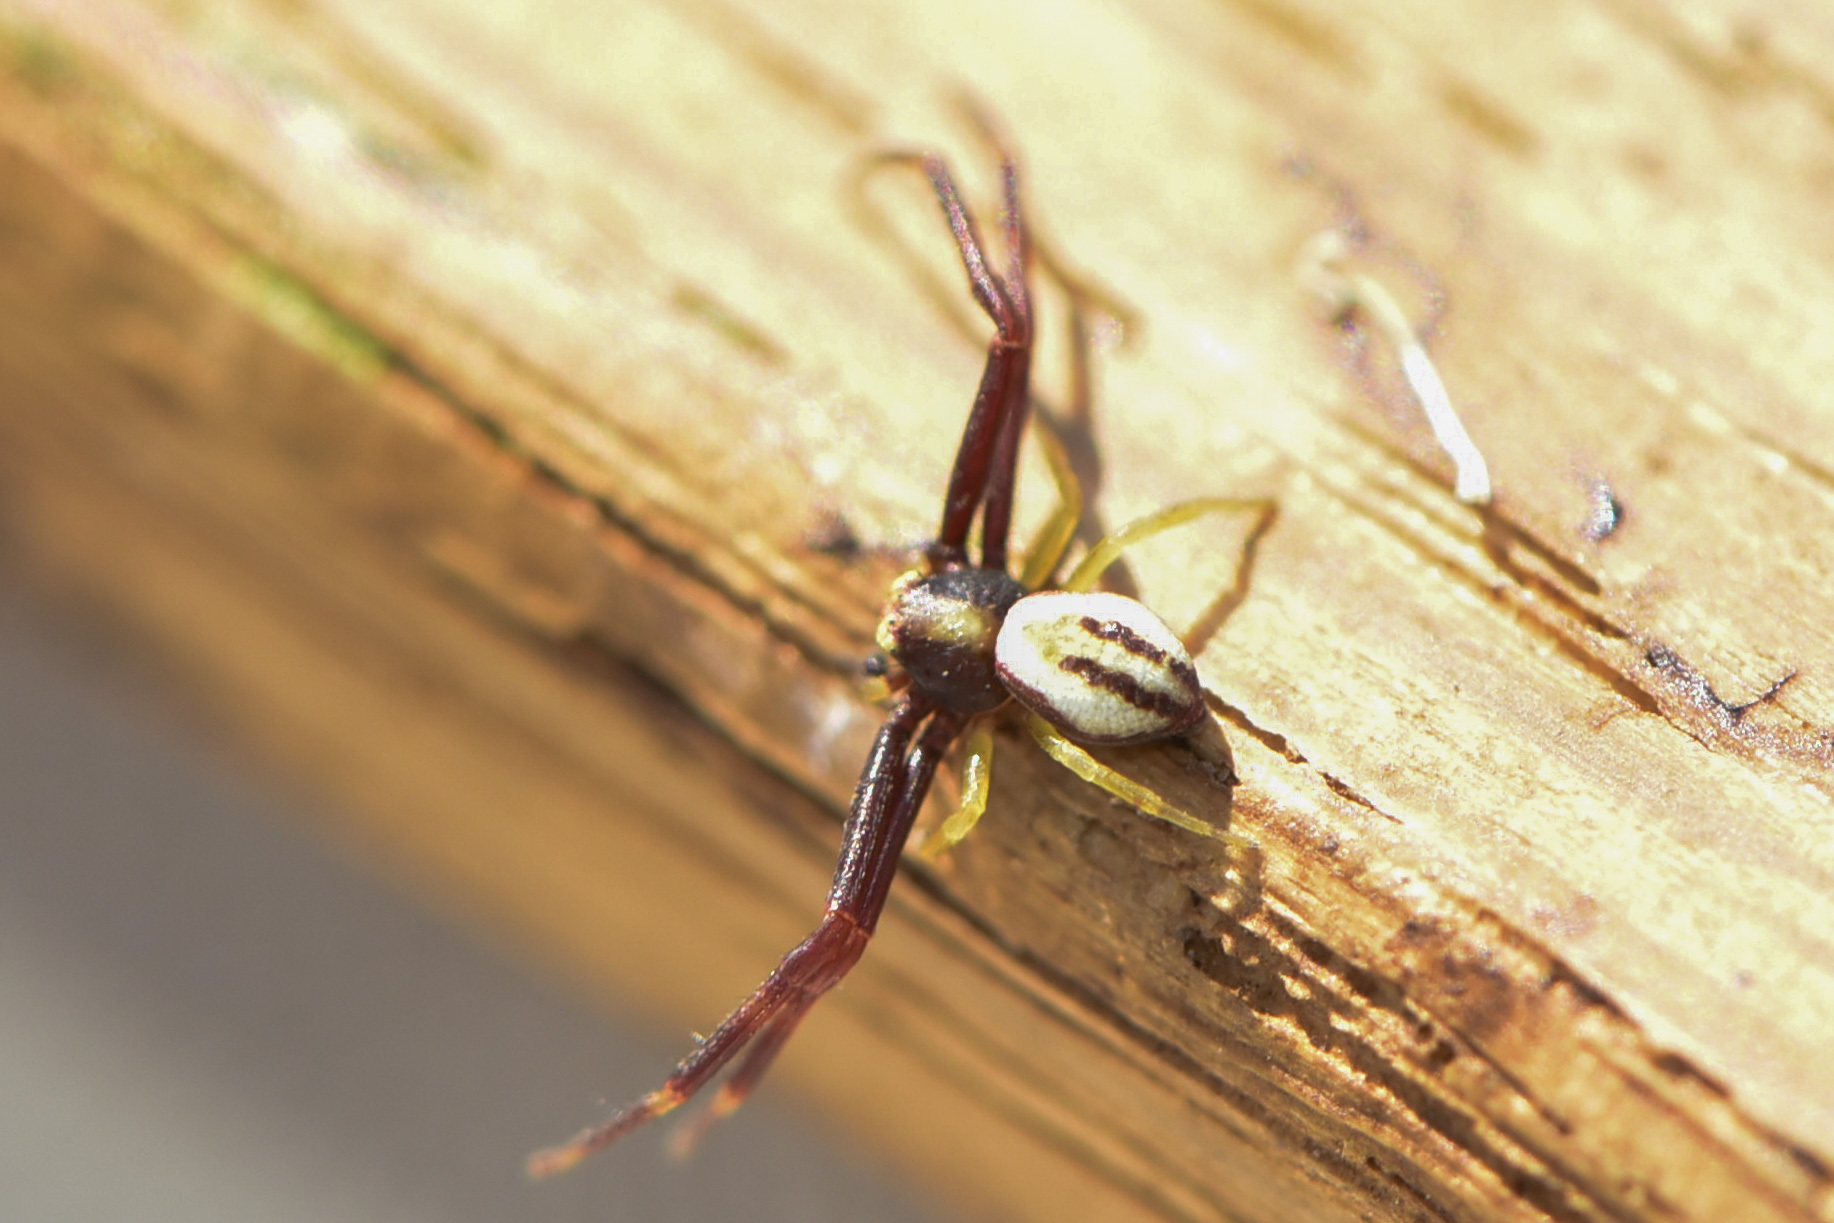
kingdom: Animalia
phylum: Arthropoda
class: Arachnida
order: Araneae
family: Thomisidae
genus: Misumena
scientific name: Misumena vatia
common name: Goldenrod crab spider
